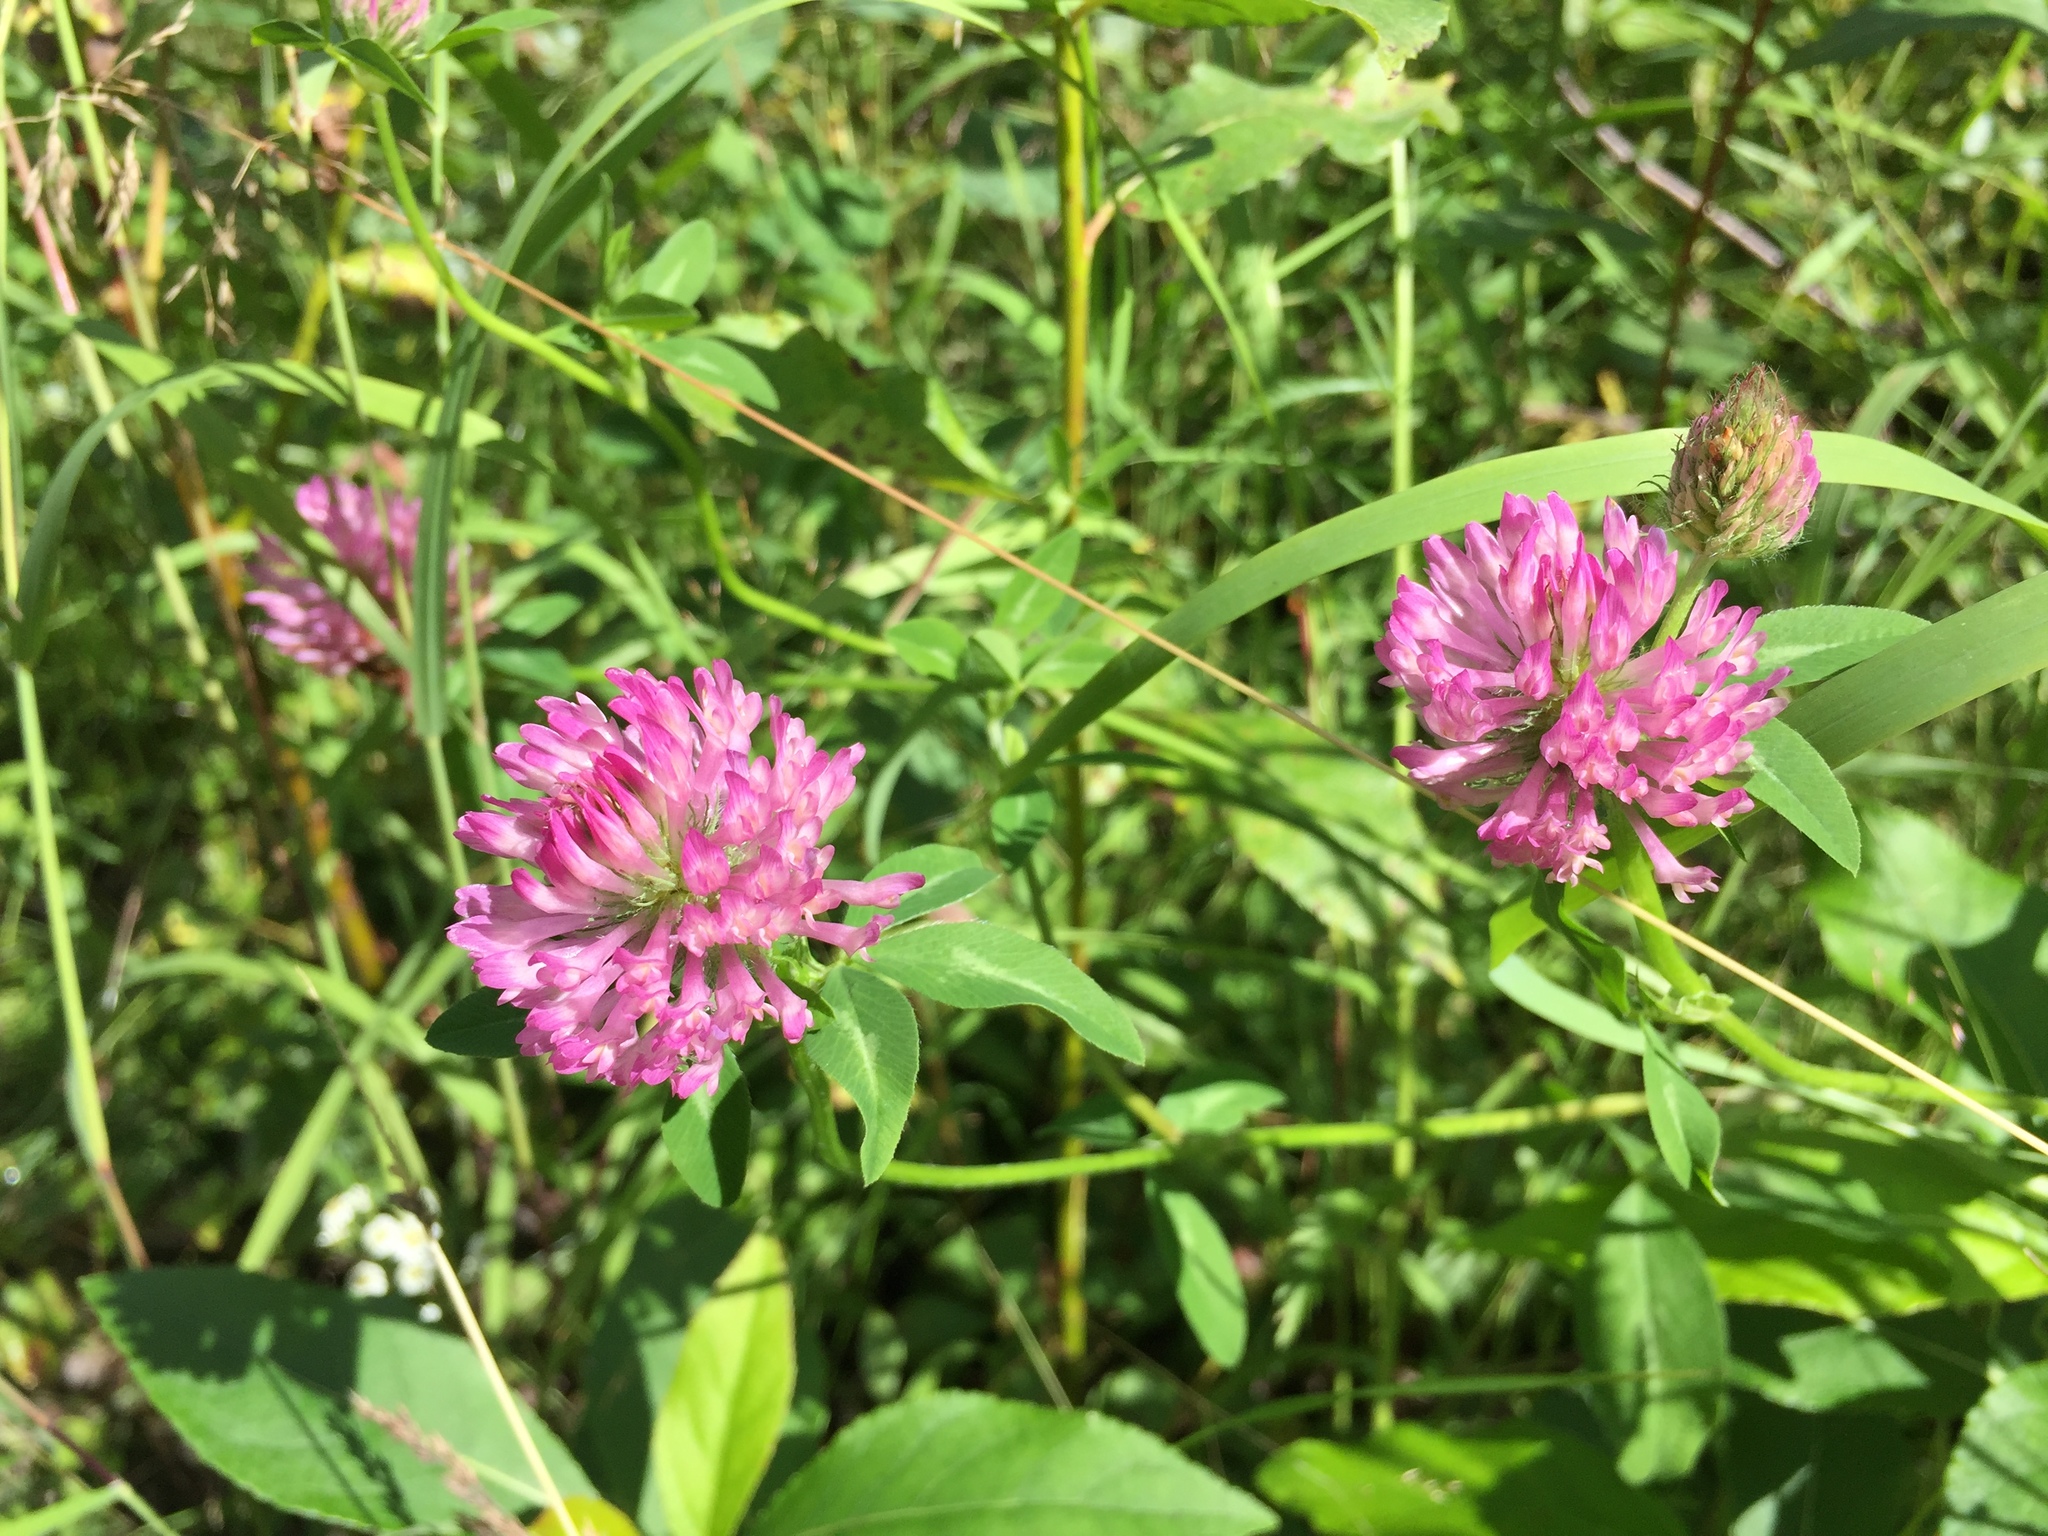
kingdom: Plantae
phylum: Tracheophyta
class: Magnoliopsida
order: Fabales
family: Fabaceae
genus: Trifolium
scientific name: Trifolium pratense
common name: Red clover
